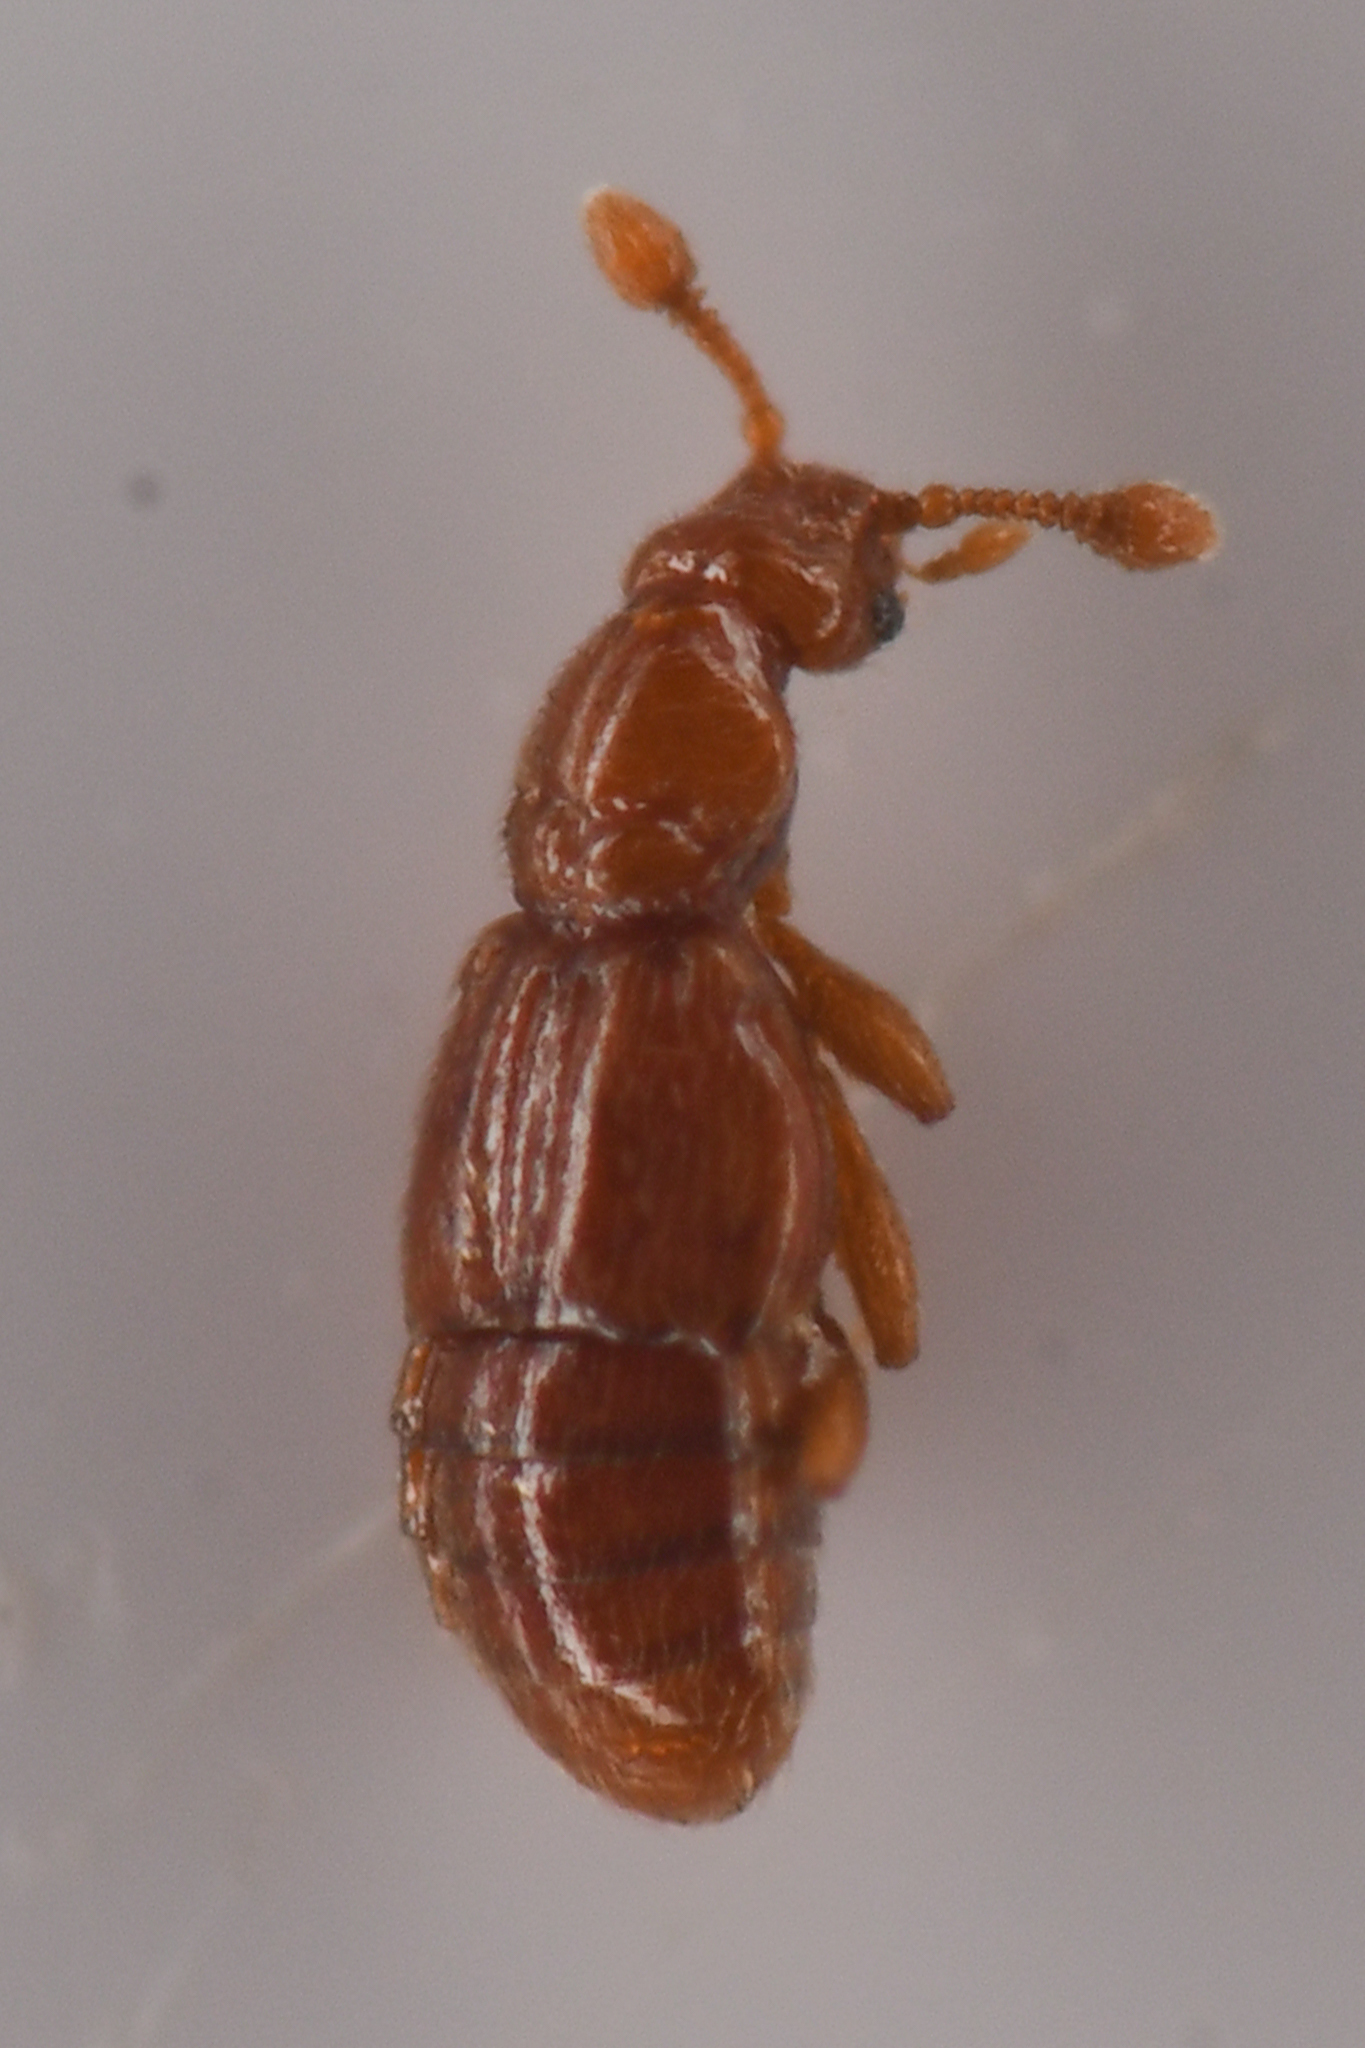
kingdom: Animalia
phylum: Arthropoda
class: Insecta
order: Coleoptera
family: Staphylinidae
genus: Actium
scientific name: Actium barri
